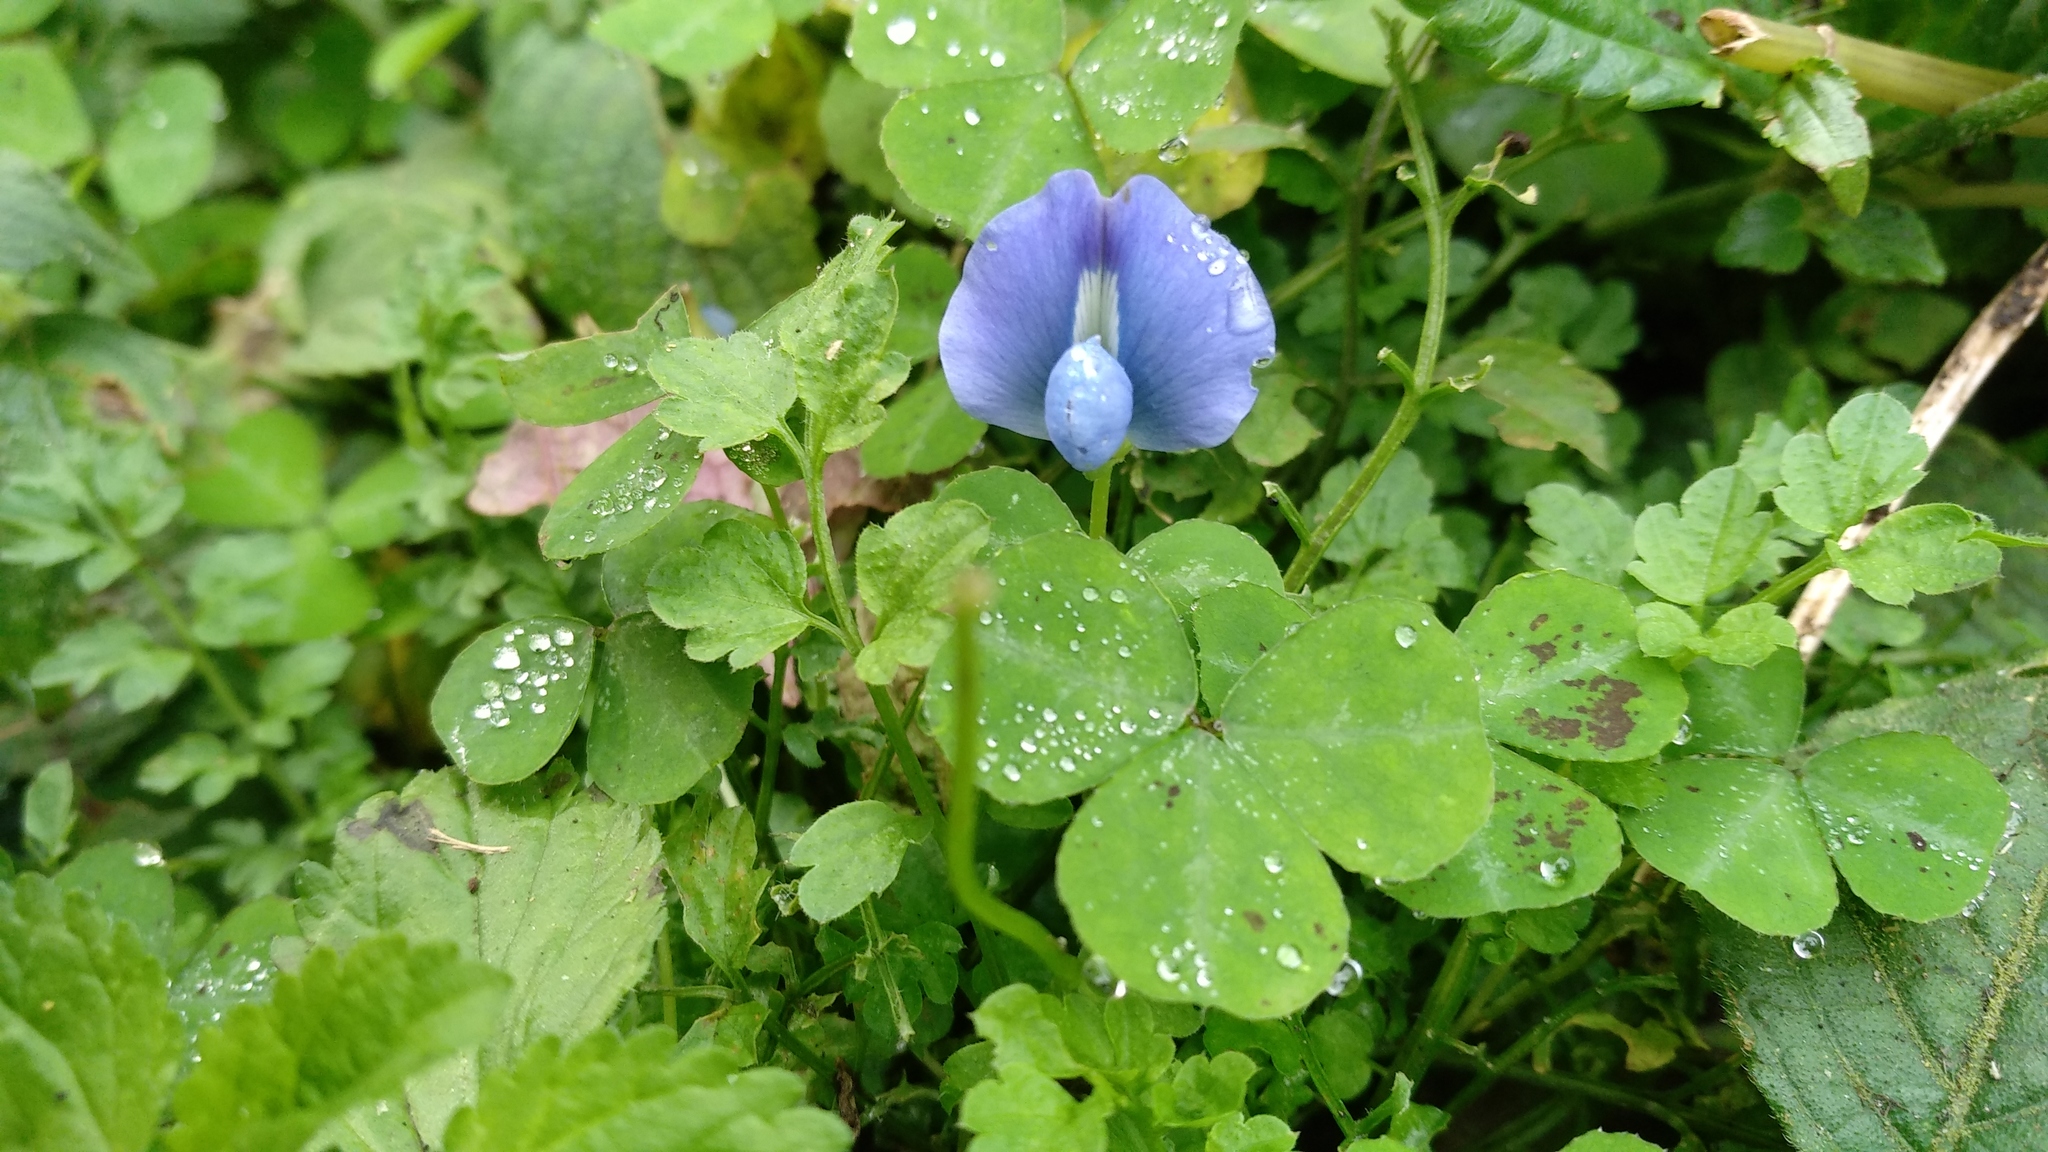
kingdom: Plantae
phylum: Tracheophyta
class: Magnoliopsida
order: Fabales
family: Fabaceae
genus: Parochetus
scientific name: Parochetus communis
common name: Blue oxalis
